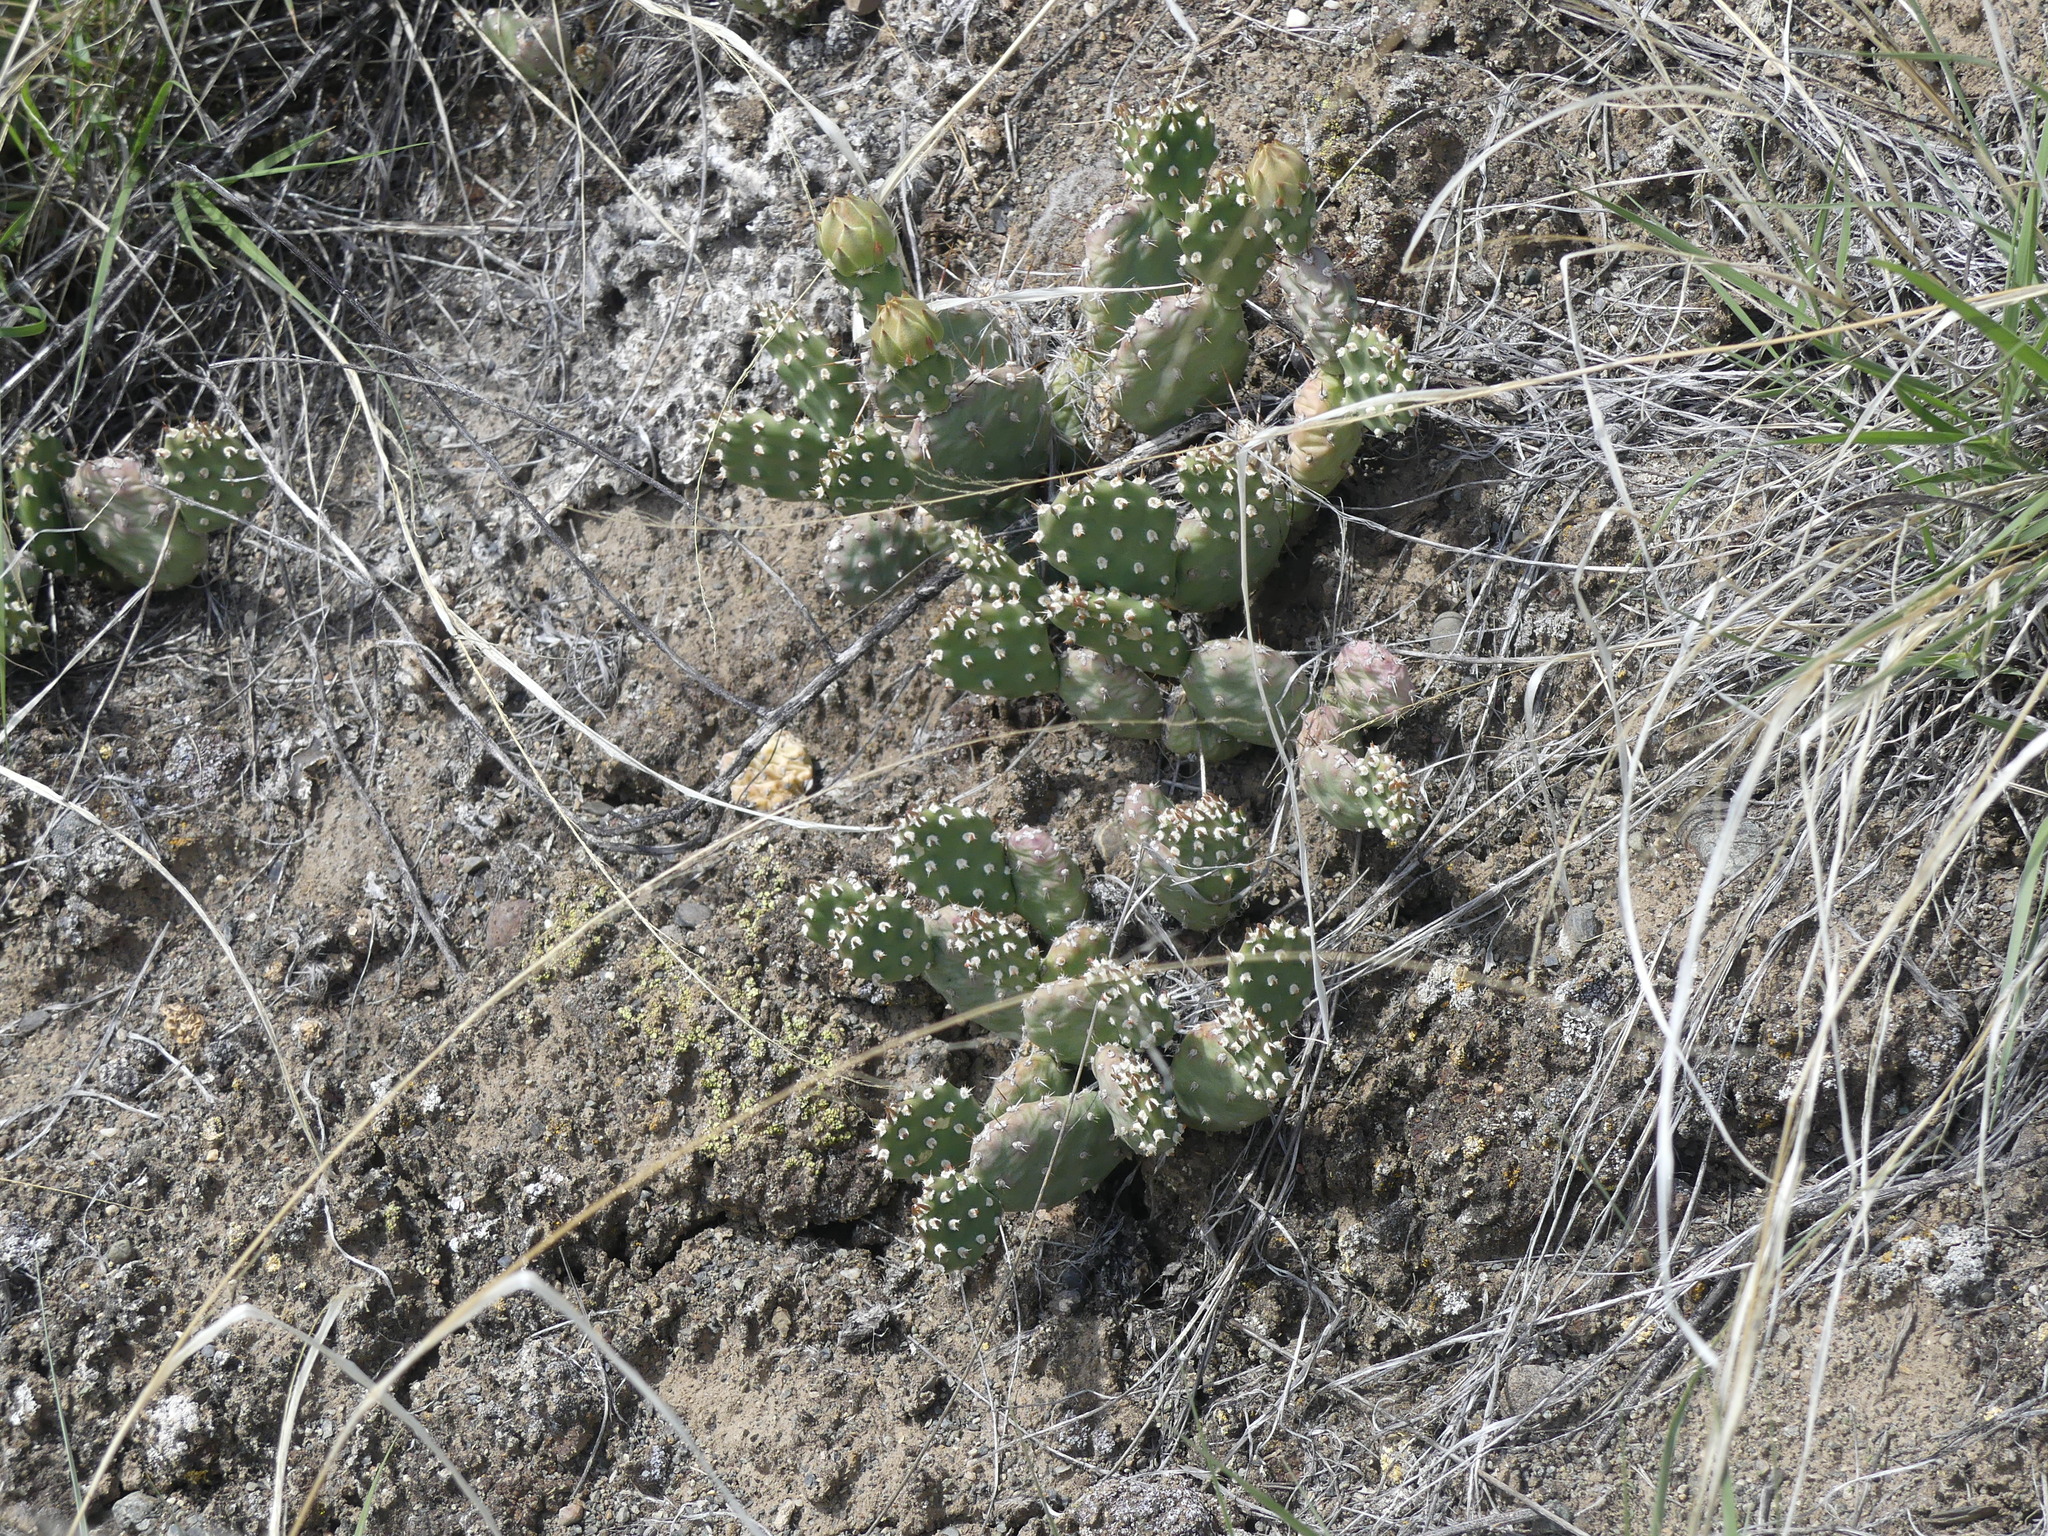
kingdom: Plantae
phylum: Tracheophyta
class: Magnoliopsida
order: Caryophyllales
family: Cactaceae
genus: Opuntia
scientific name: Opuntia fragilis
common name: Brittle cactus
